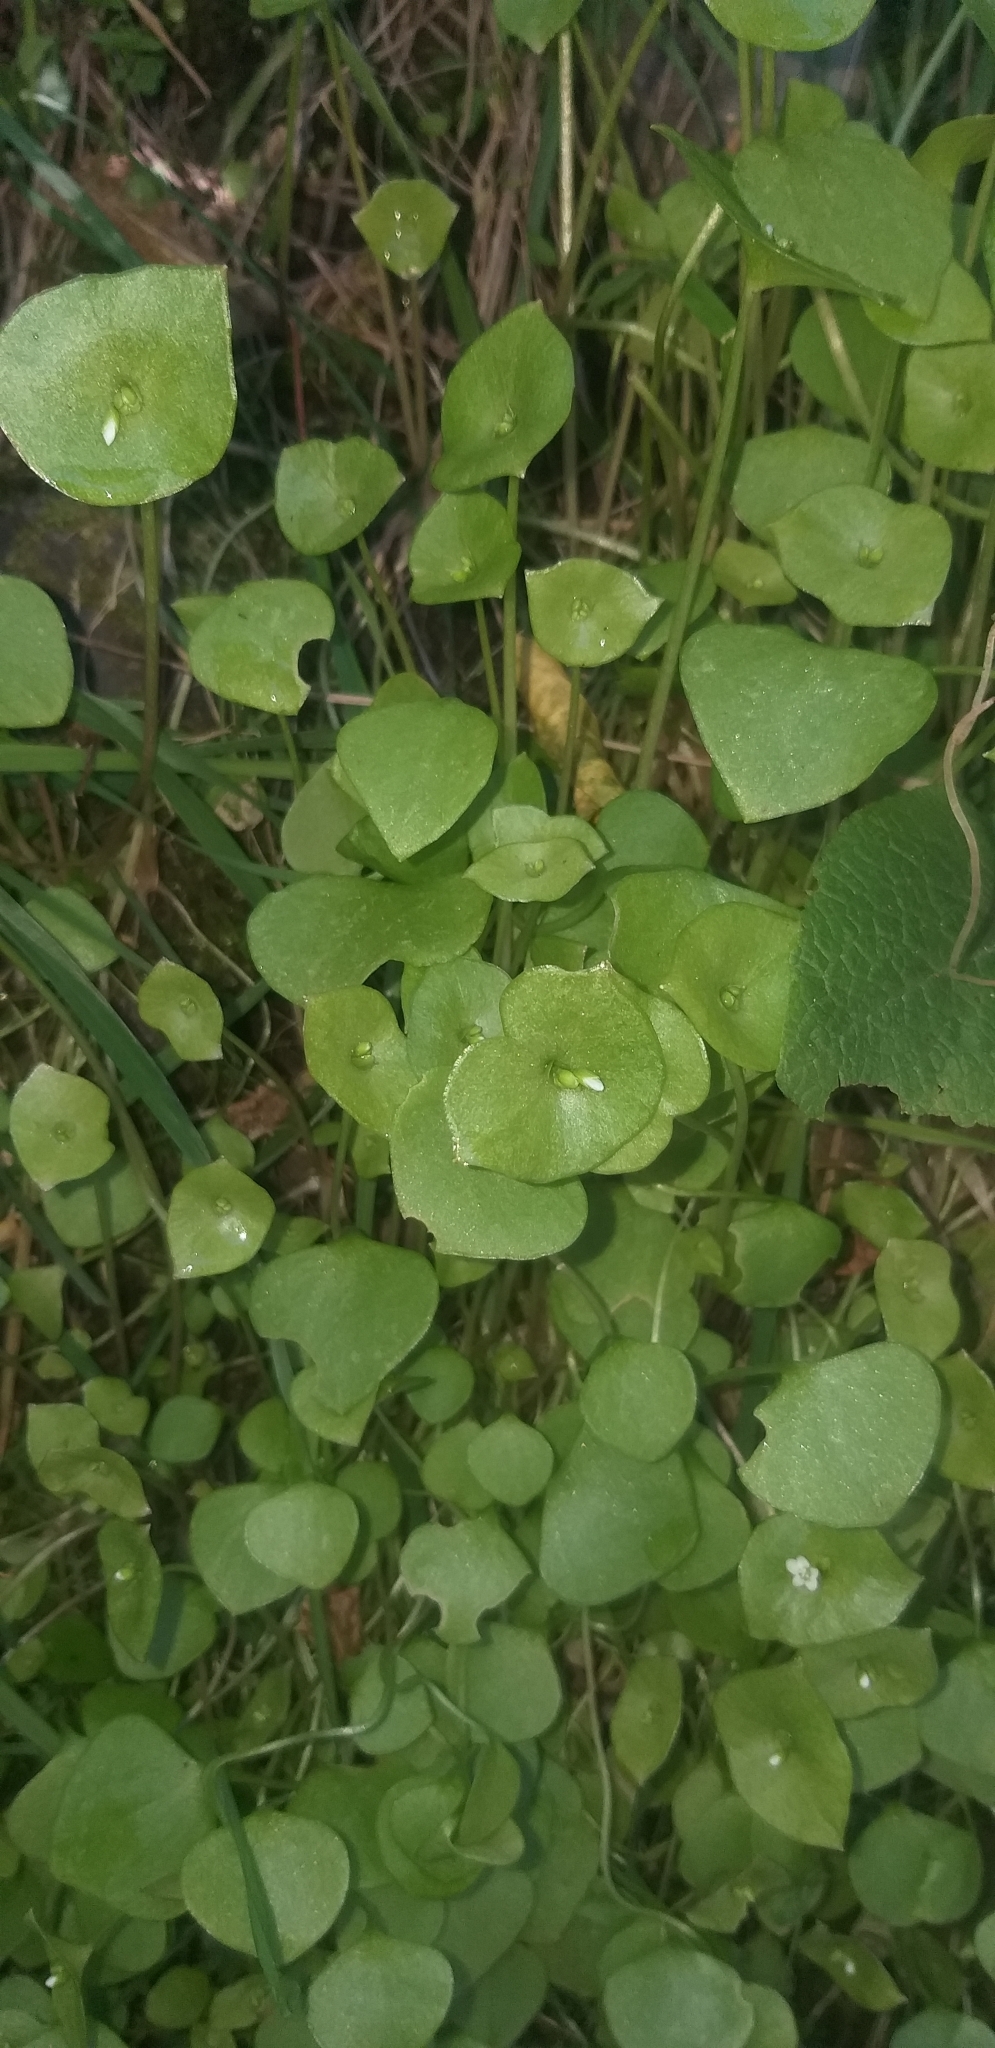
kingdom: Plantae
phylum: Tracheophyta
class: Magnoliopsida
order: Caryophyllales
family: Montiaceae
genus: Claytonia
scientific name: Claytonia perfoliata
